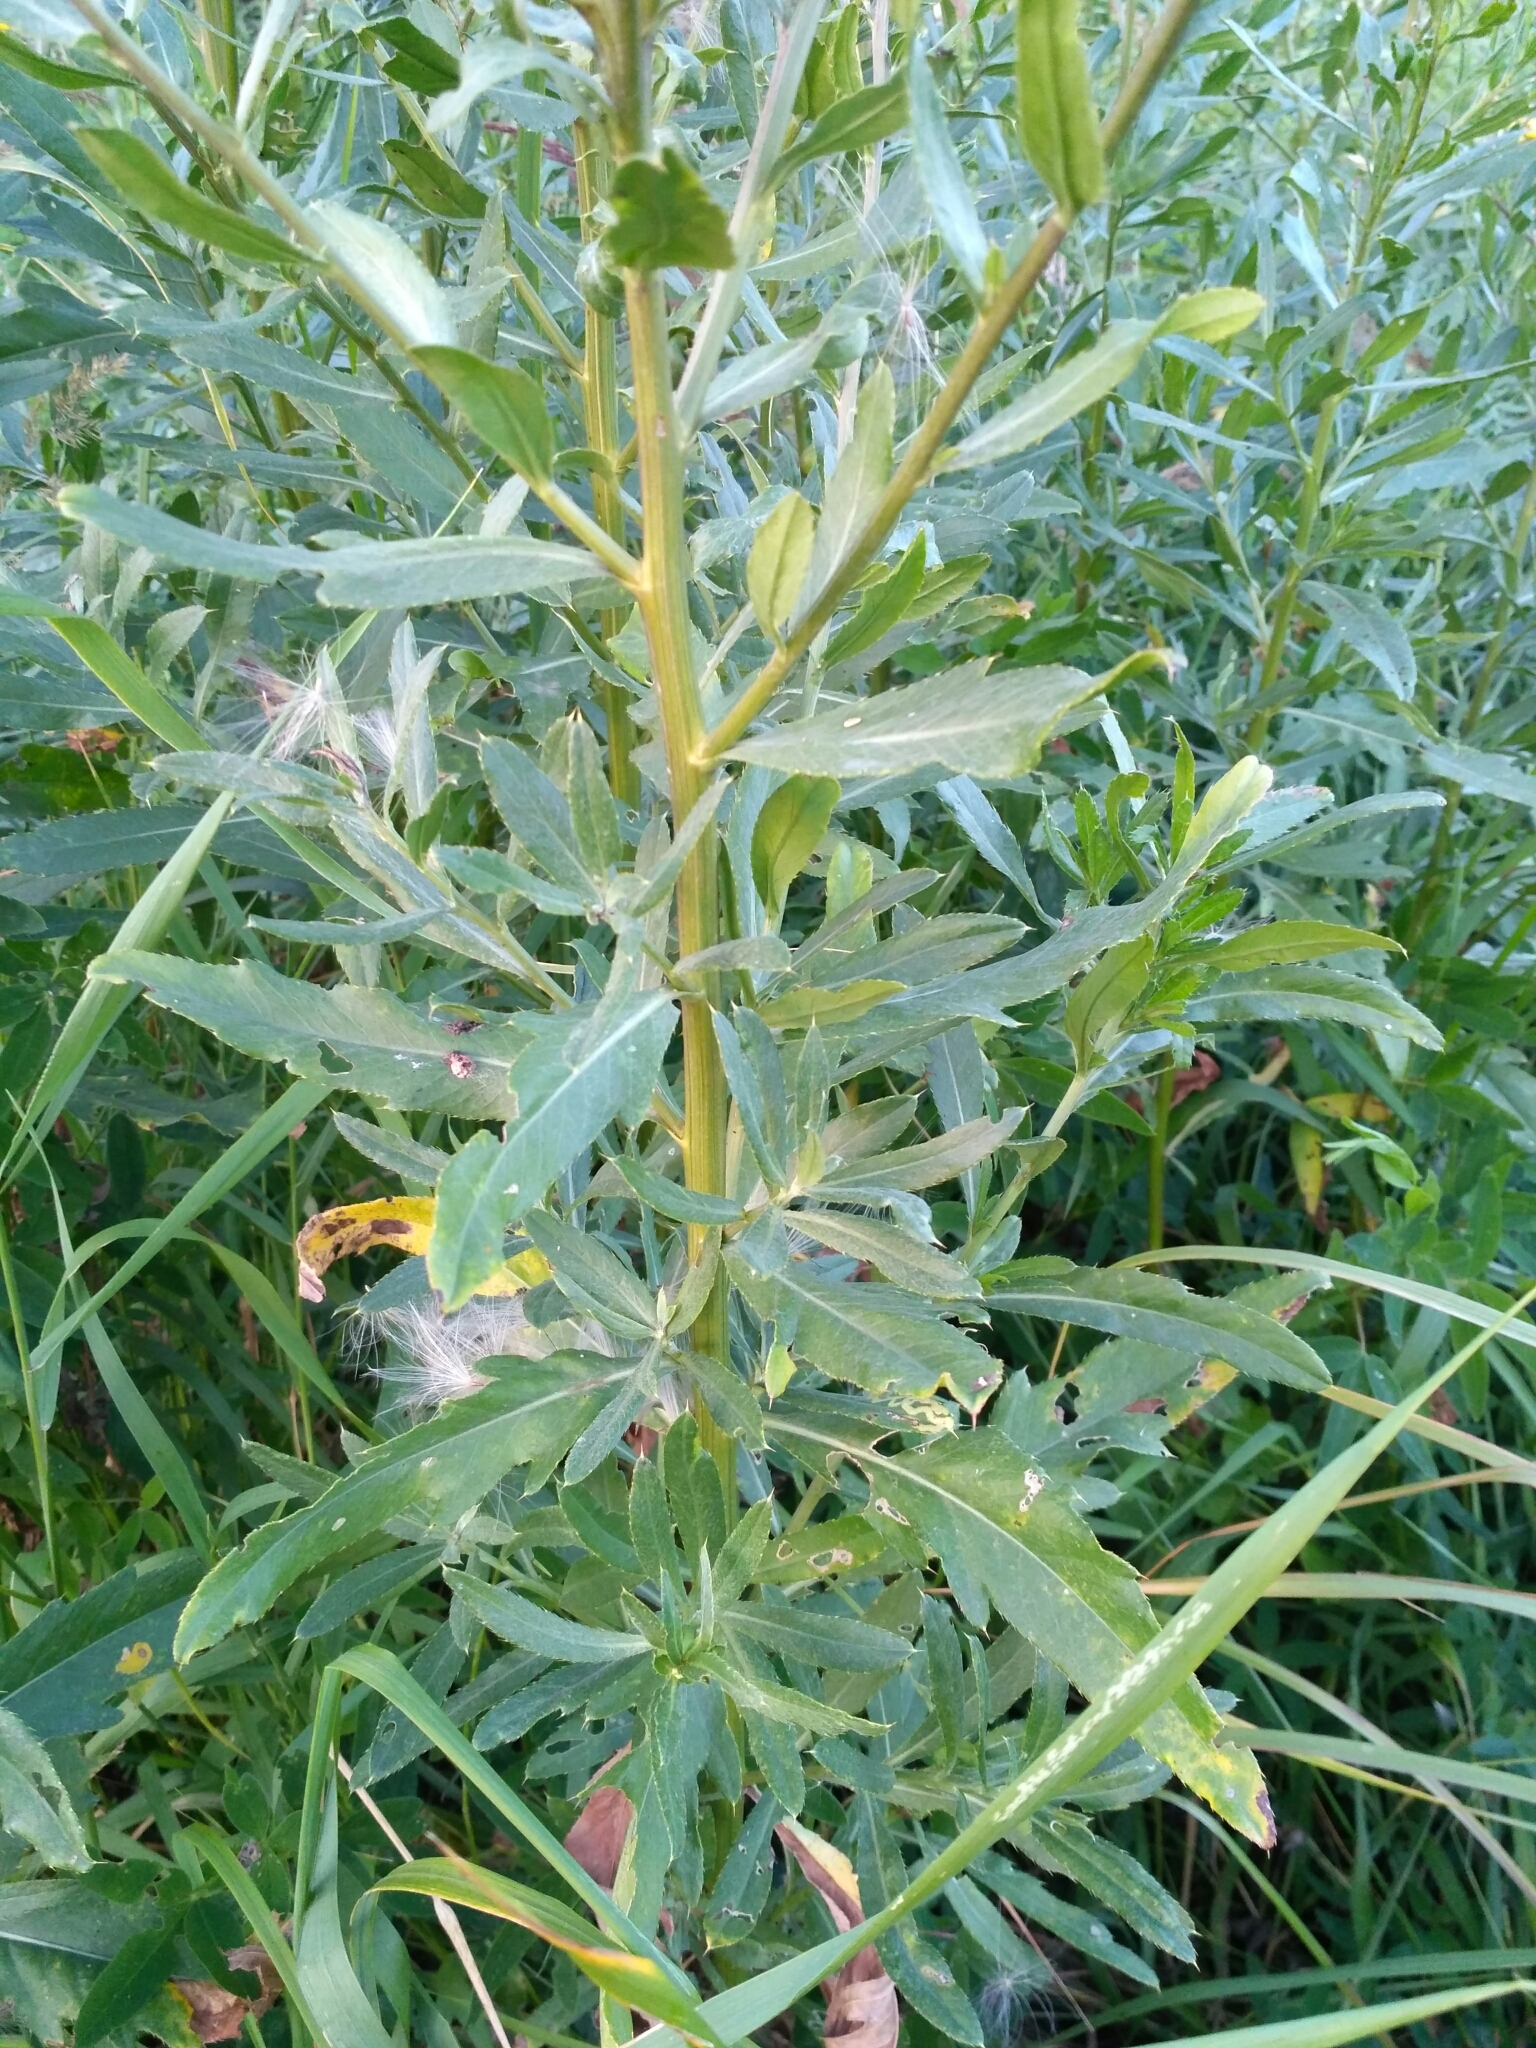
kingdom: Plantae
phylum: Tracheophyta
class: Magnoliopsida
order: Asterales
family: Asteraceae
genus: Cirsium
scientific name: Cirsium arvense
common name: Creeping thistle
